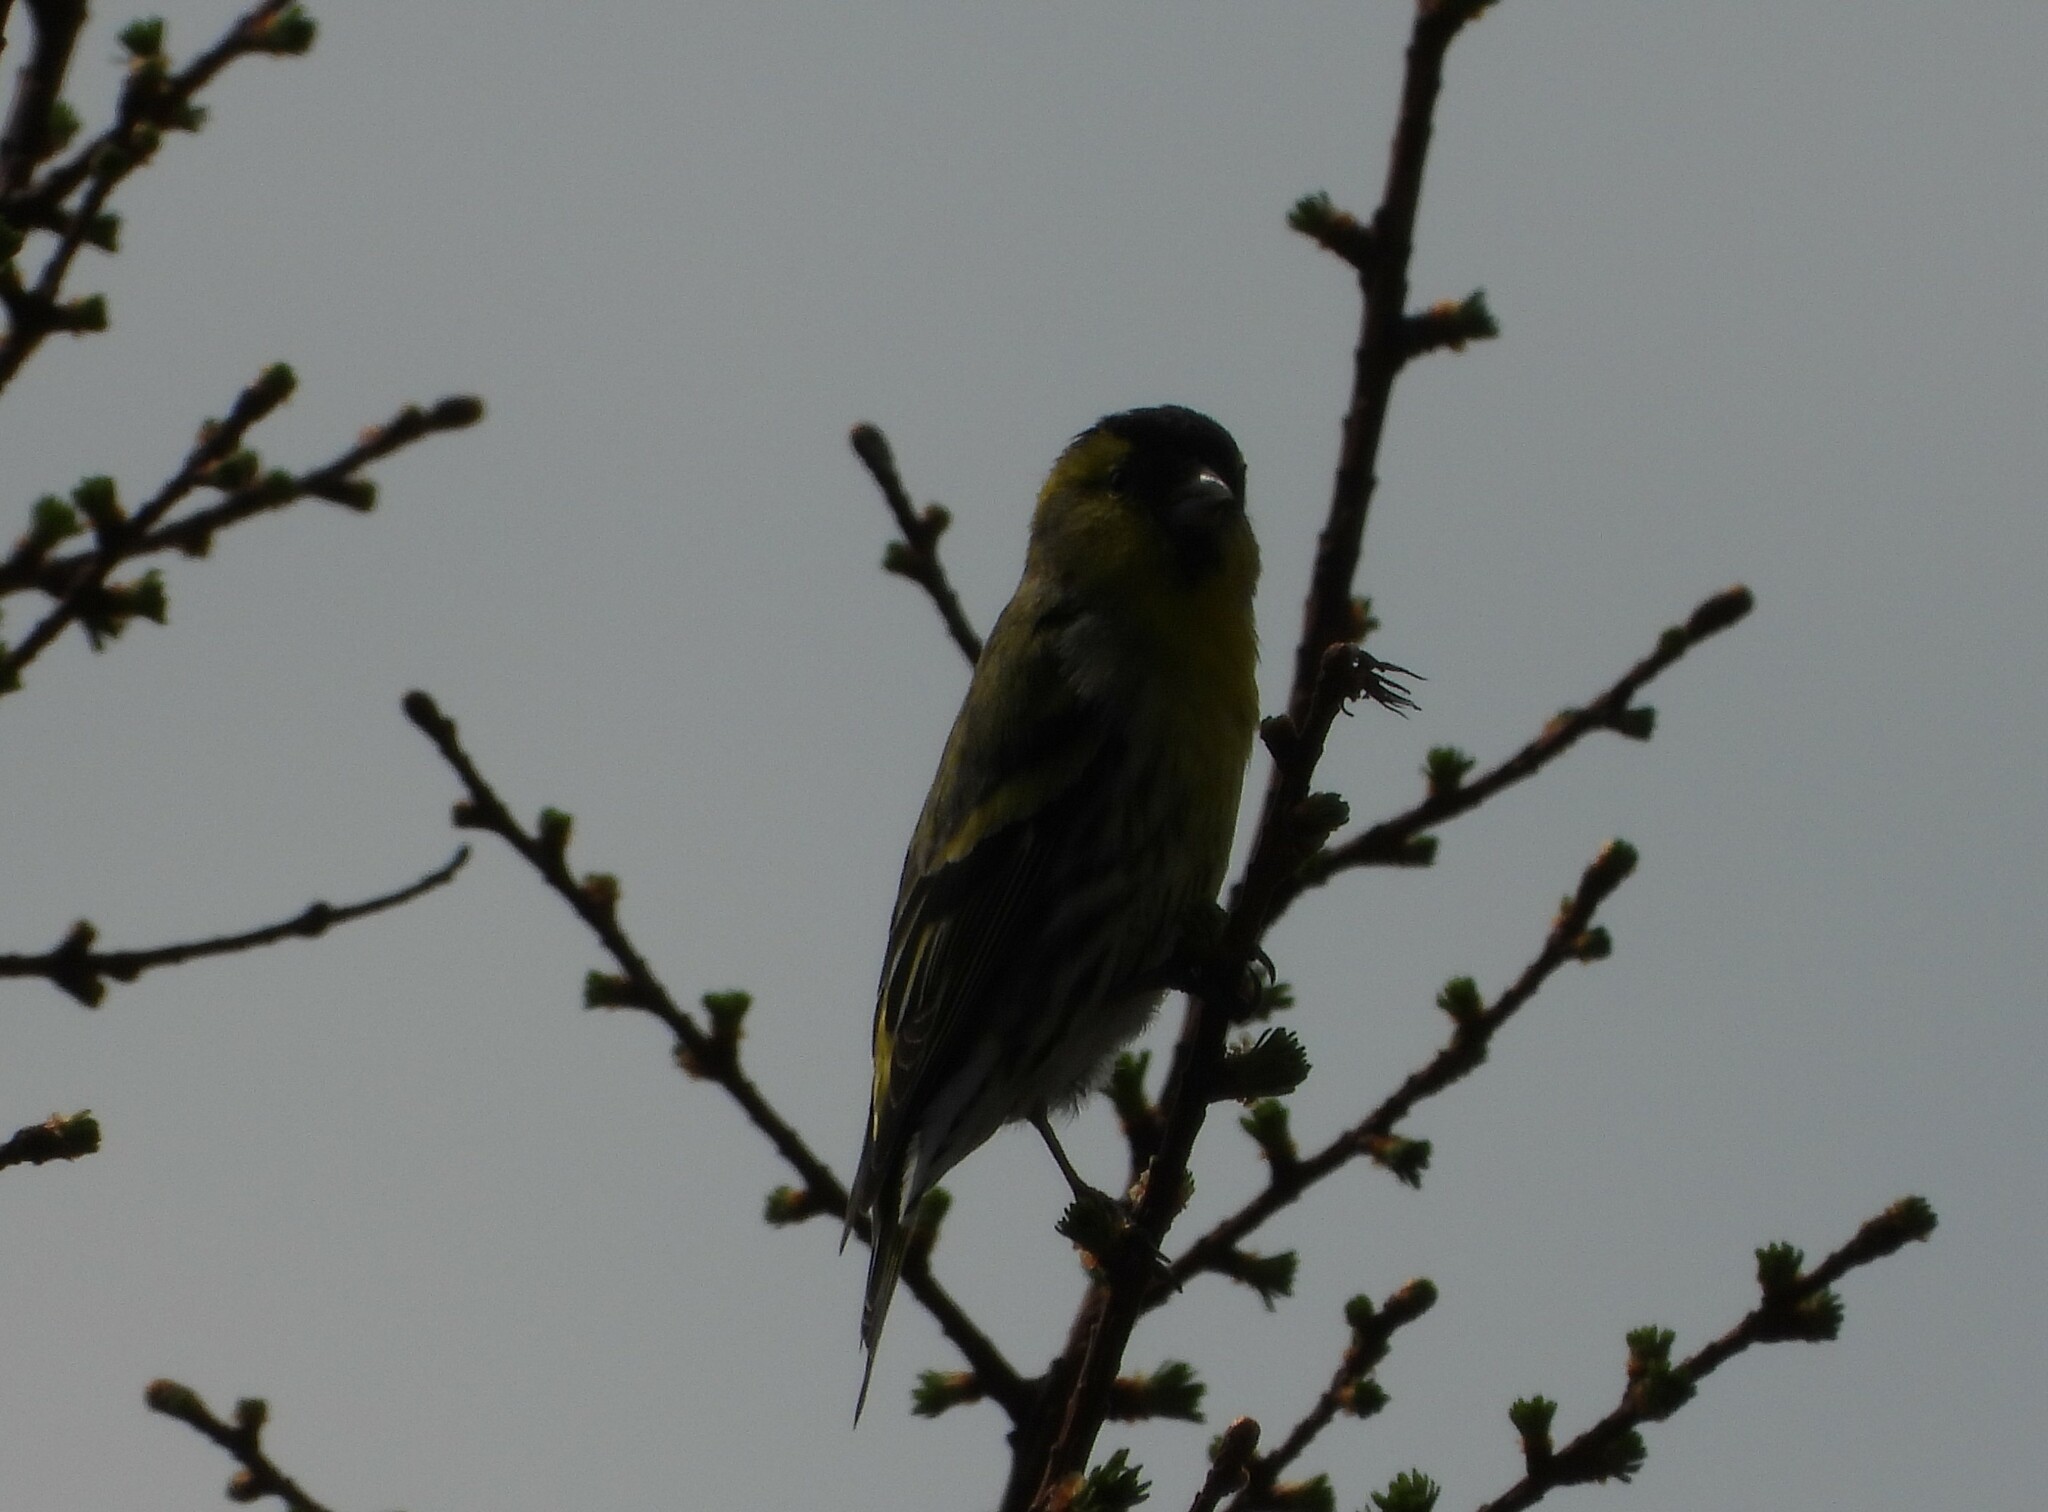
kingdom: Animalia
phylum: Chordata
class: Aves
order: Passeriformes
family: Fringillidae
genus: Spinus
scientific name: Spinus spinus
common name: Eurasian siskin
